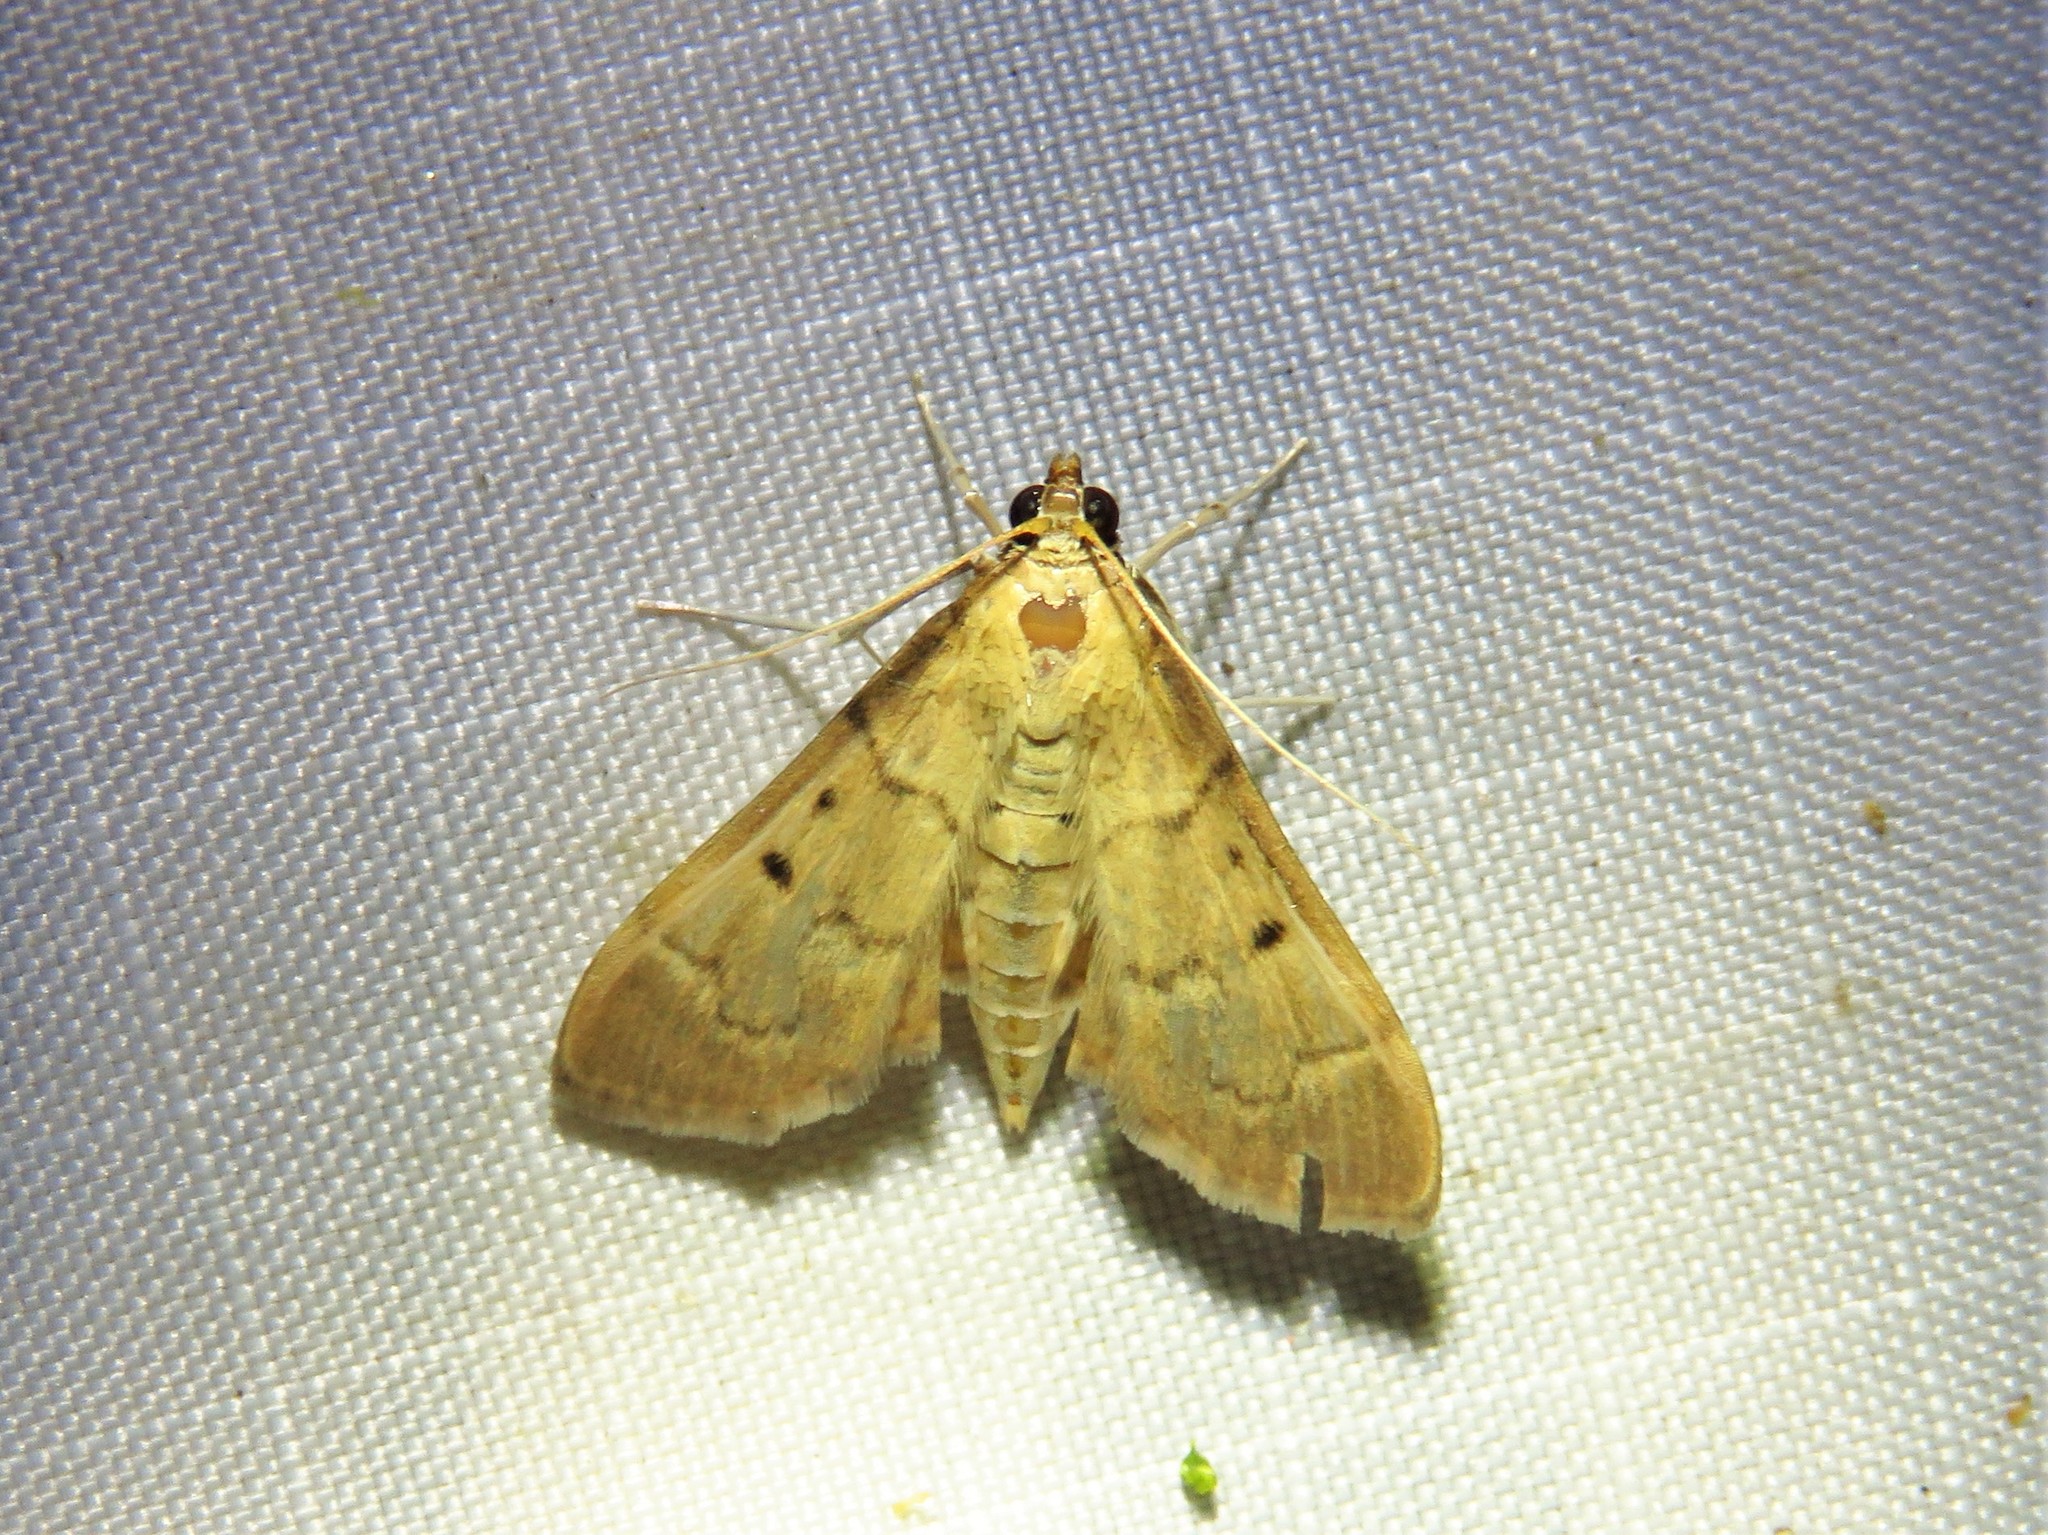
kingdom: Animalia
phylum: Arthropoda
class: Insecta
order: Lepidoptera
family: Crambidae
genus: Herpetogramma
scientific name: Herpetogramma bipunctalis
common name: Southern beet webworm
